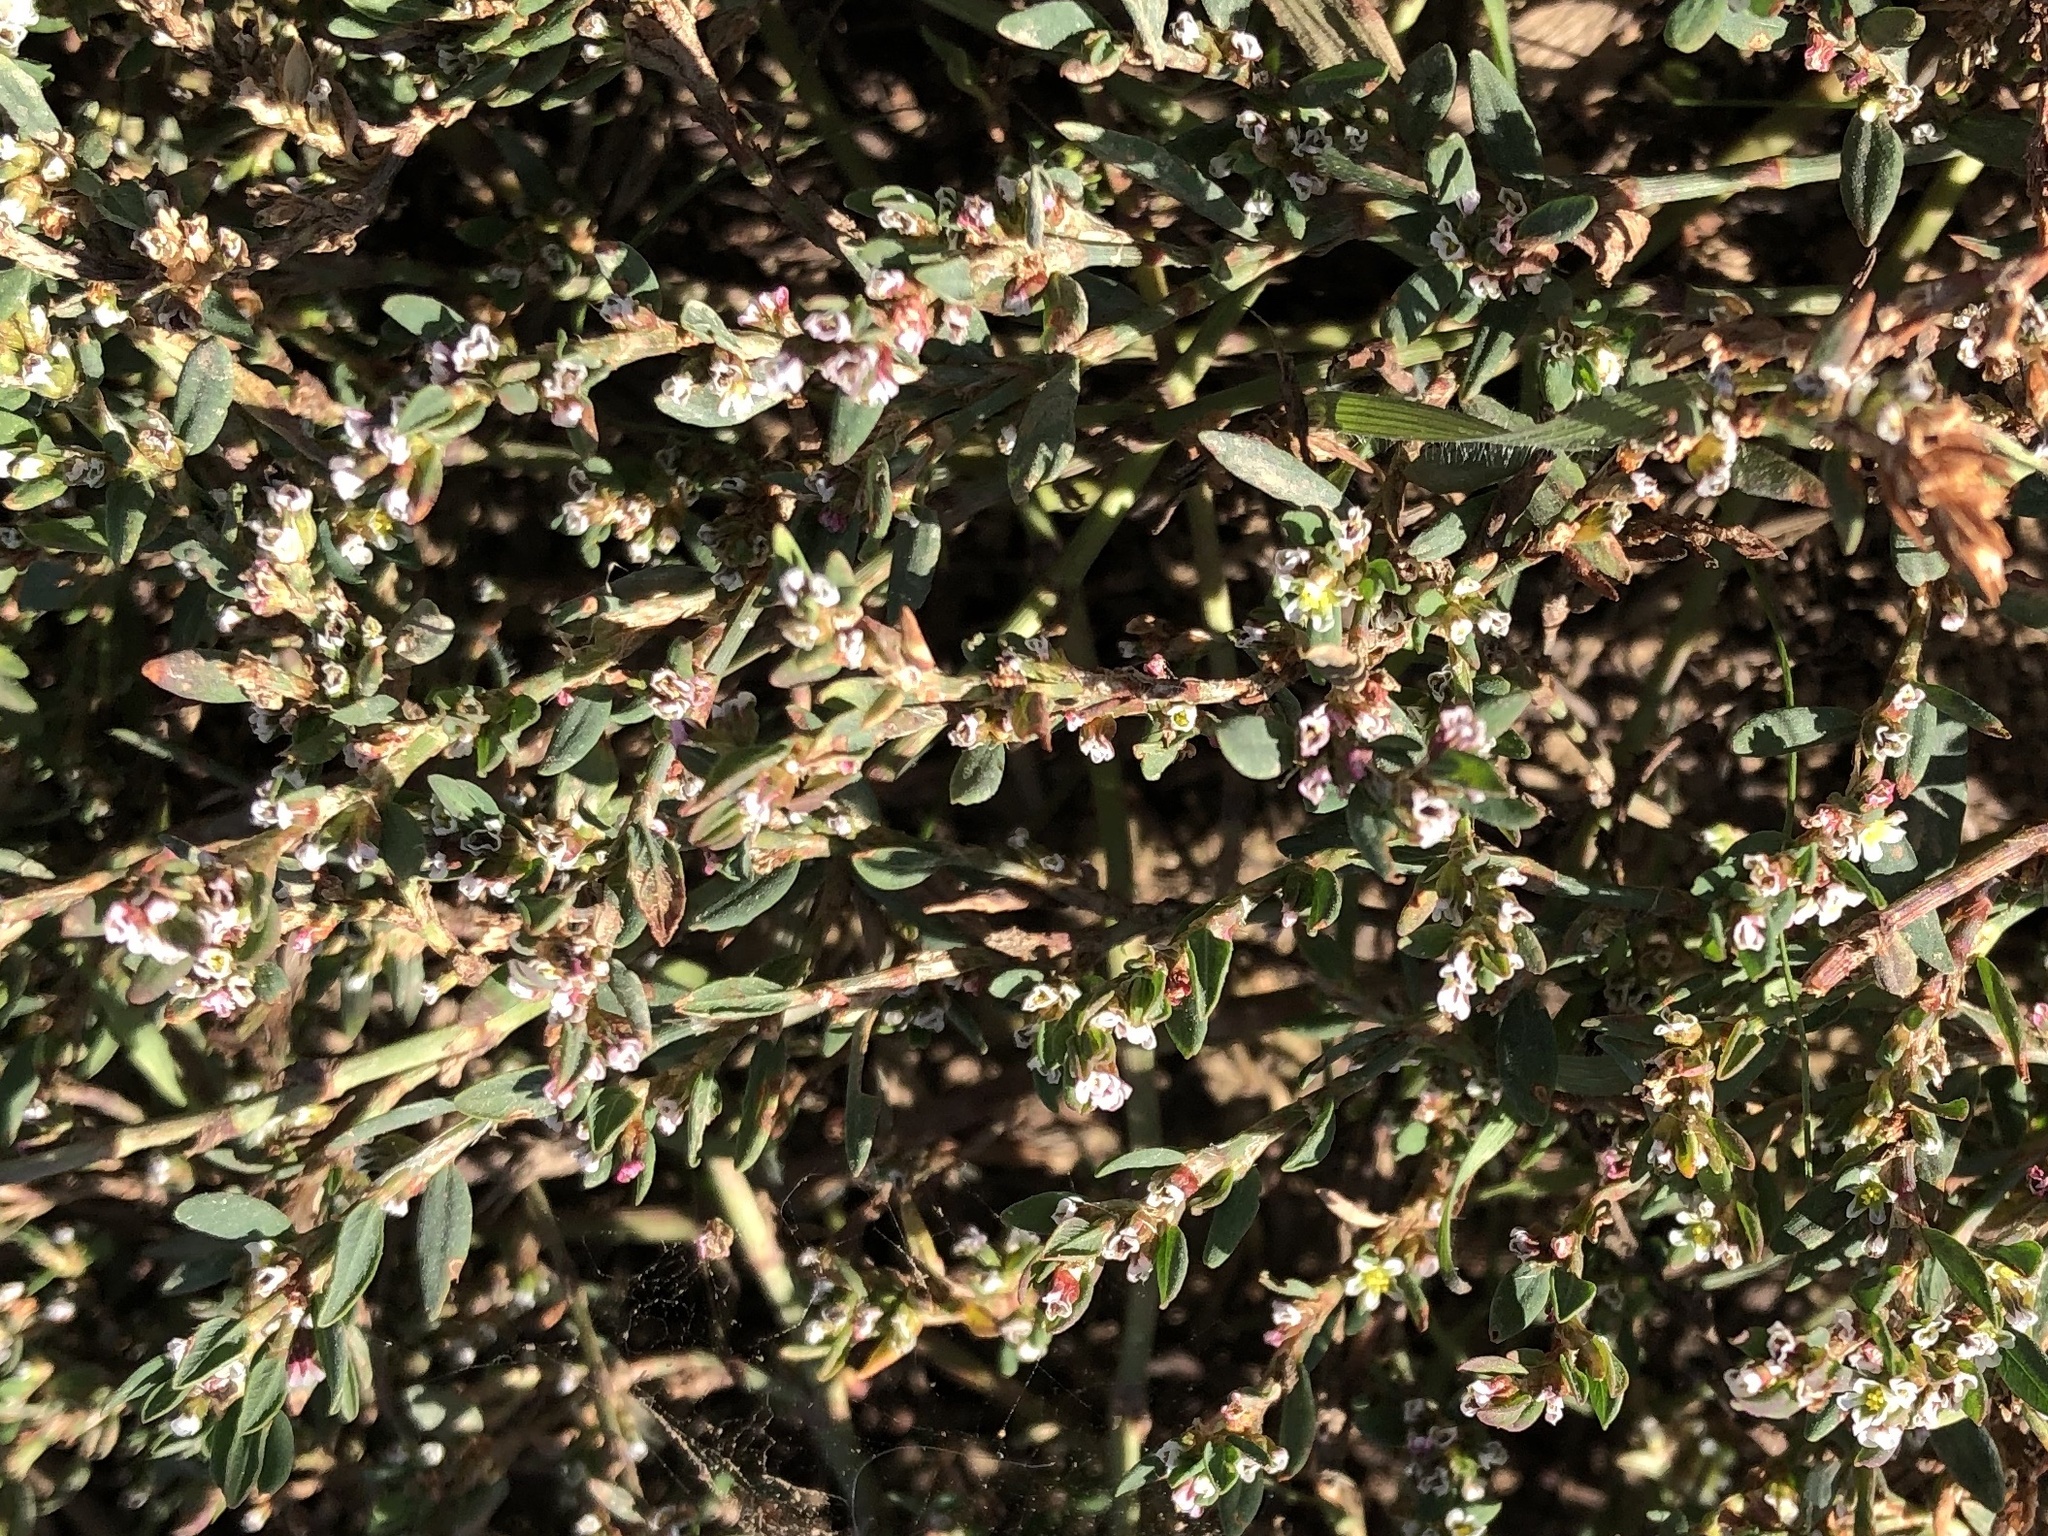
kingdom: Plantae
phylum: Tracheophyta
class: Magnoliopsida
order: Caryophyllales
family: Polygonaceae
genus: Polygonum
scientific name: Polygonum
